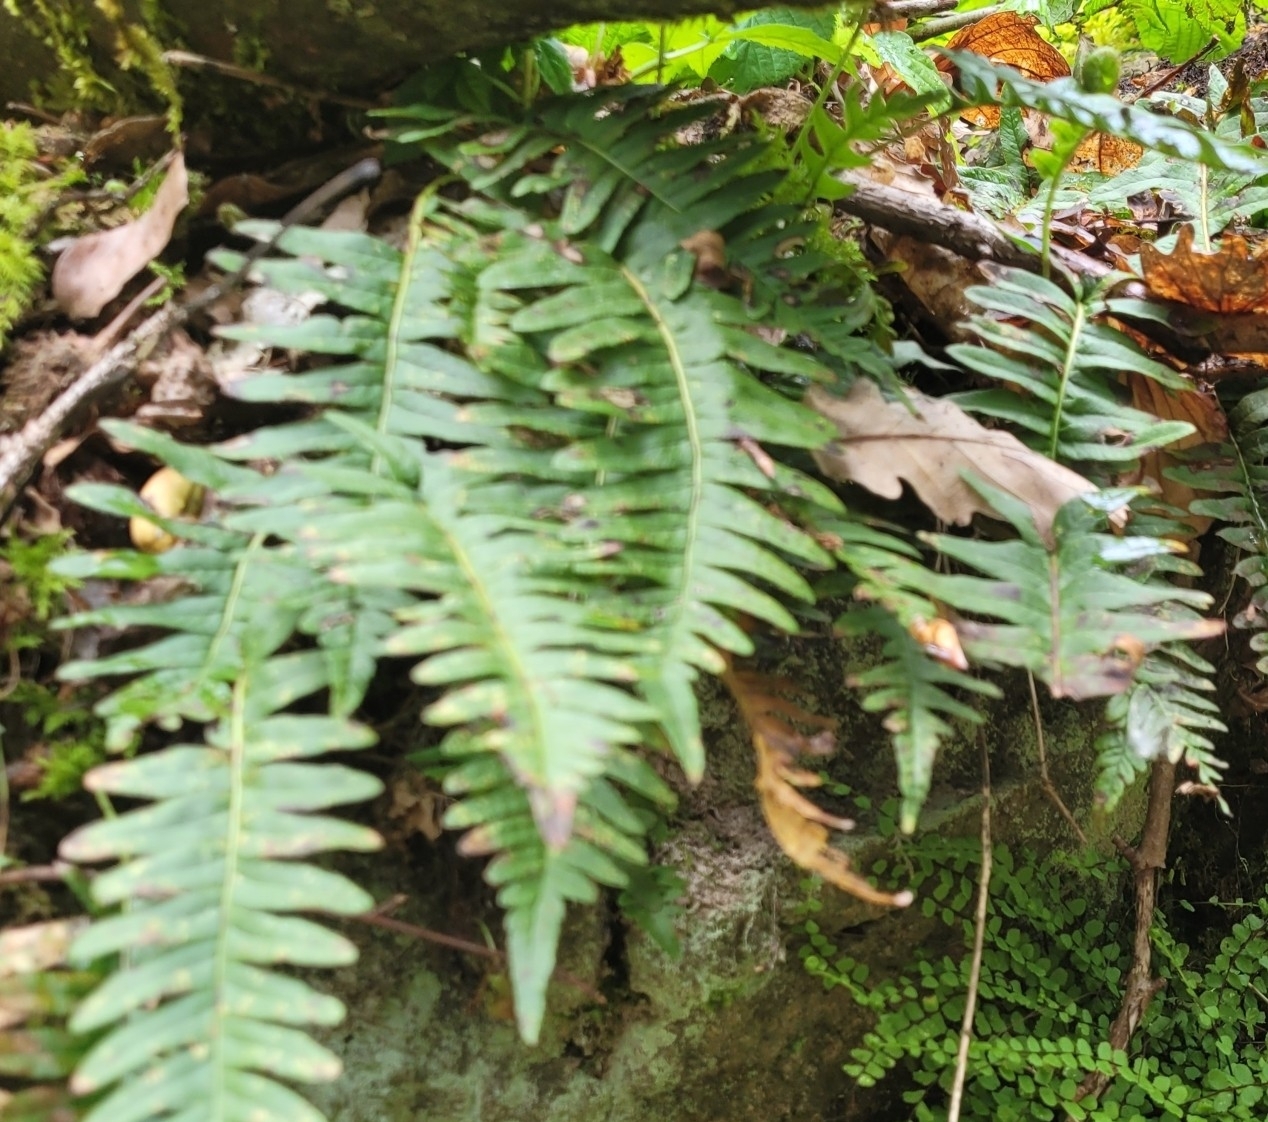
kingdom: Plantae
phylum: Tracheophyta
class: Polypodiopsida
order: Polypodiales
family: Polypodiaceae
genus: Polypodium
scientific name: Polypodium vulgare
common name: Common polypody
